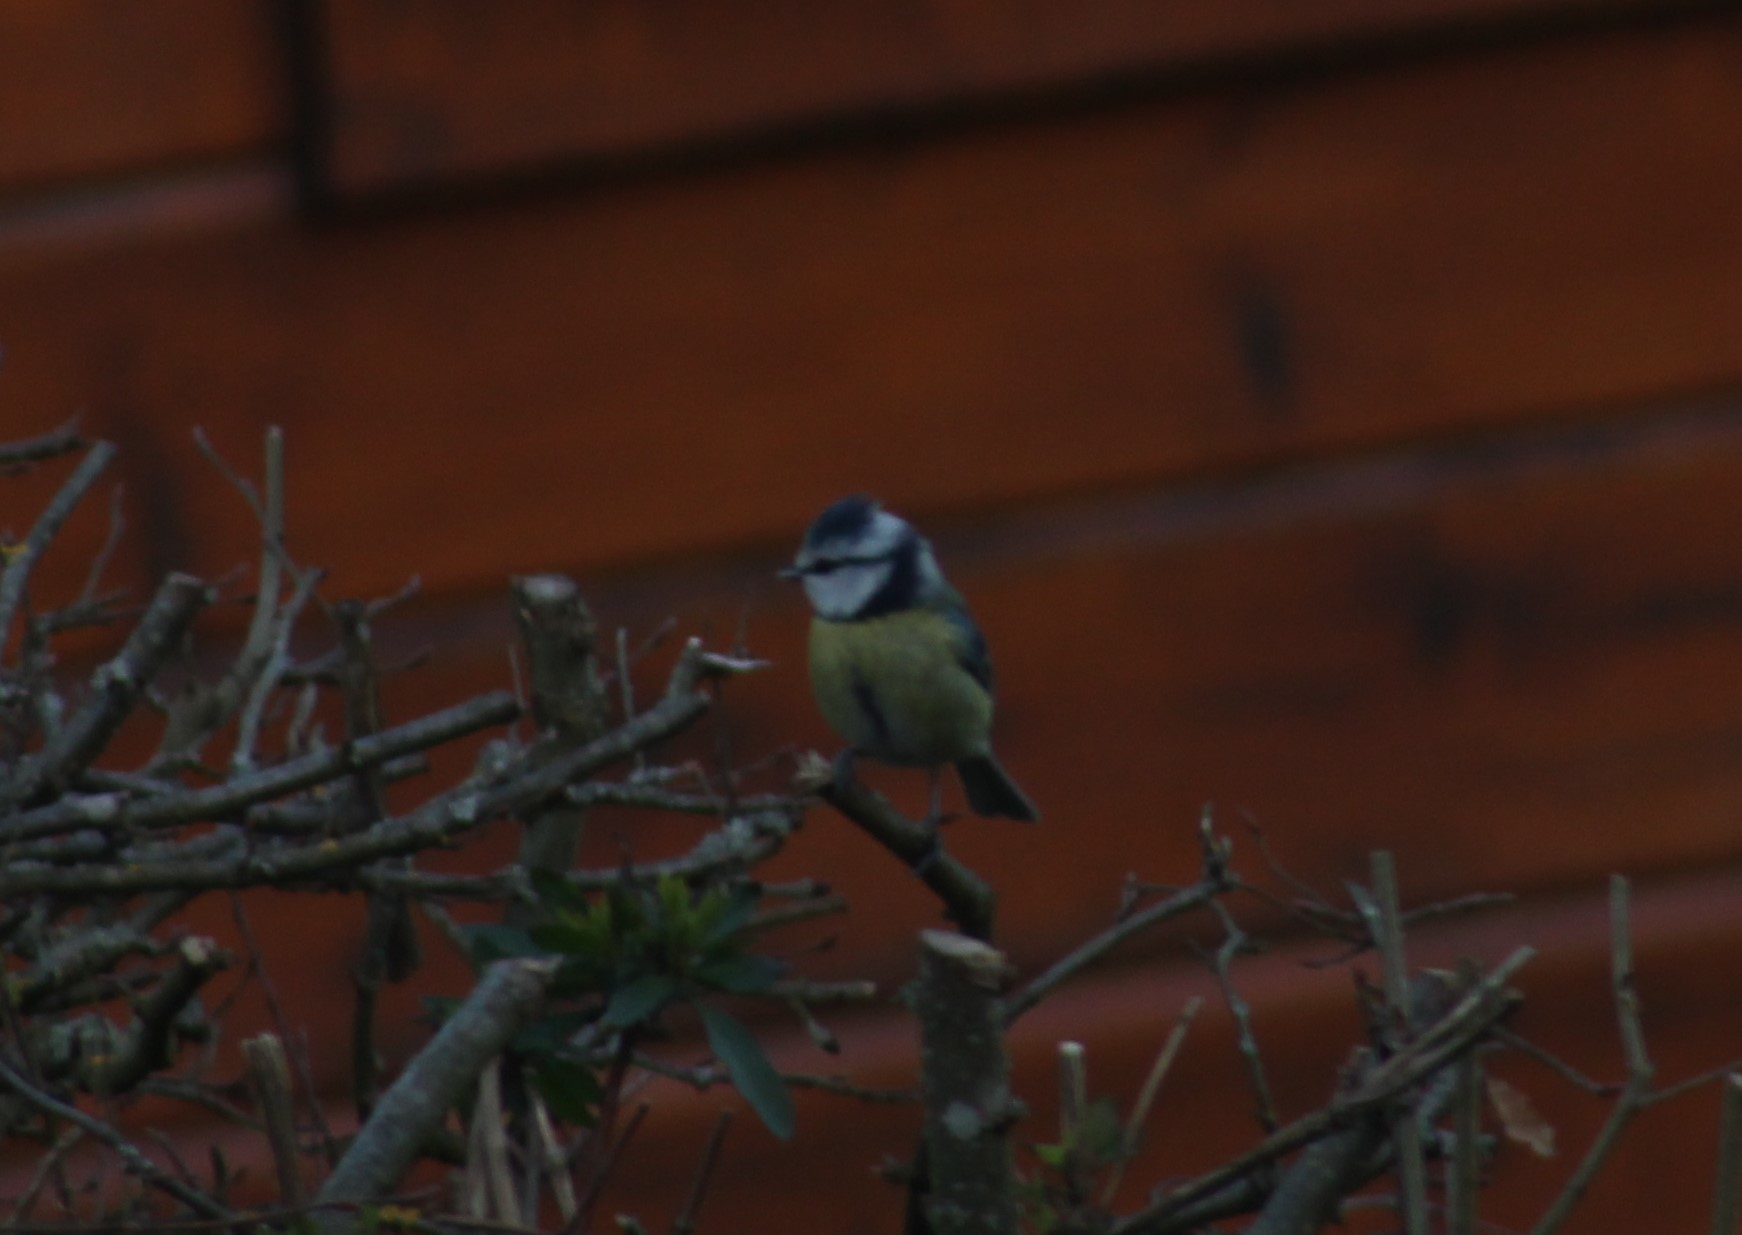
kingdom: Animalia
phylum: Chordata
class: Aves
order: Passeriformes
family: Paridae
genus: Cyanistes
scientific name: Cyanistes caeruleus
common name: Eurasian blue tit
